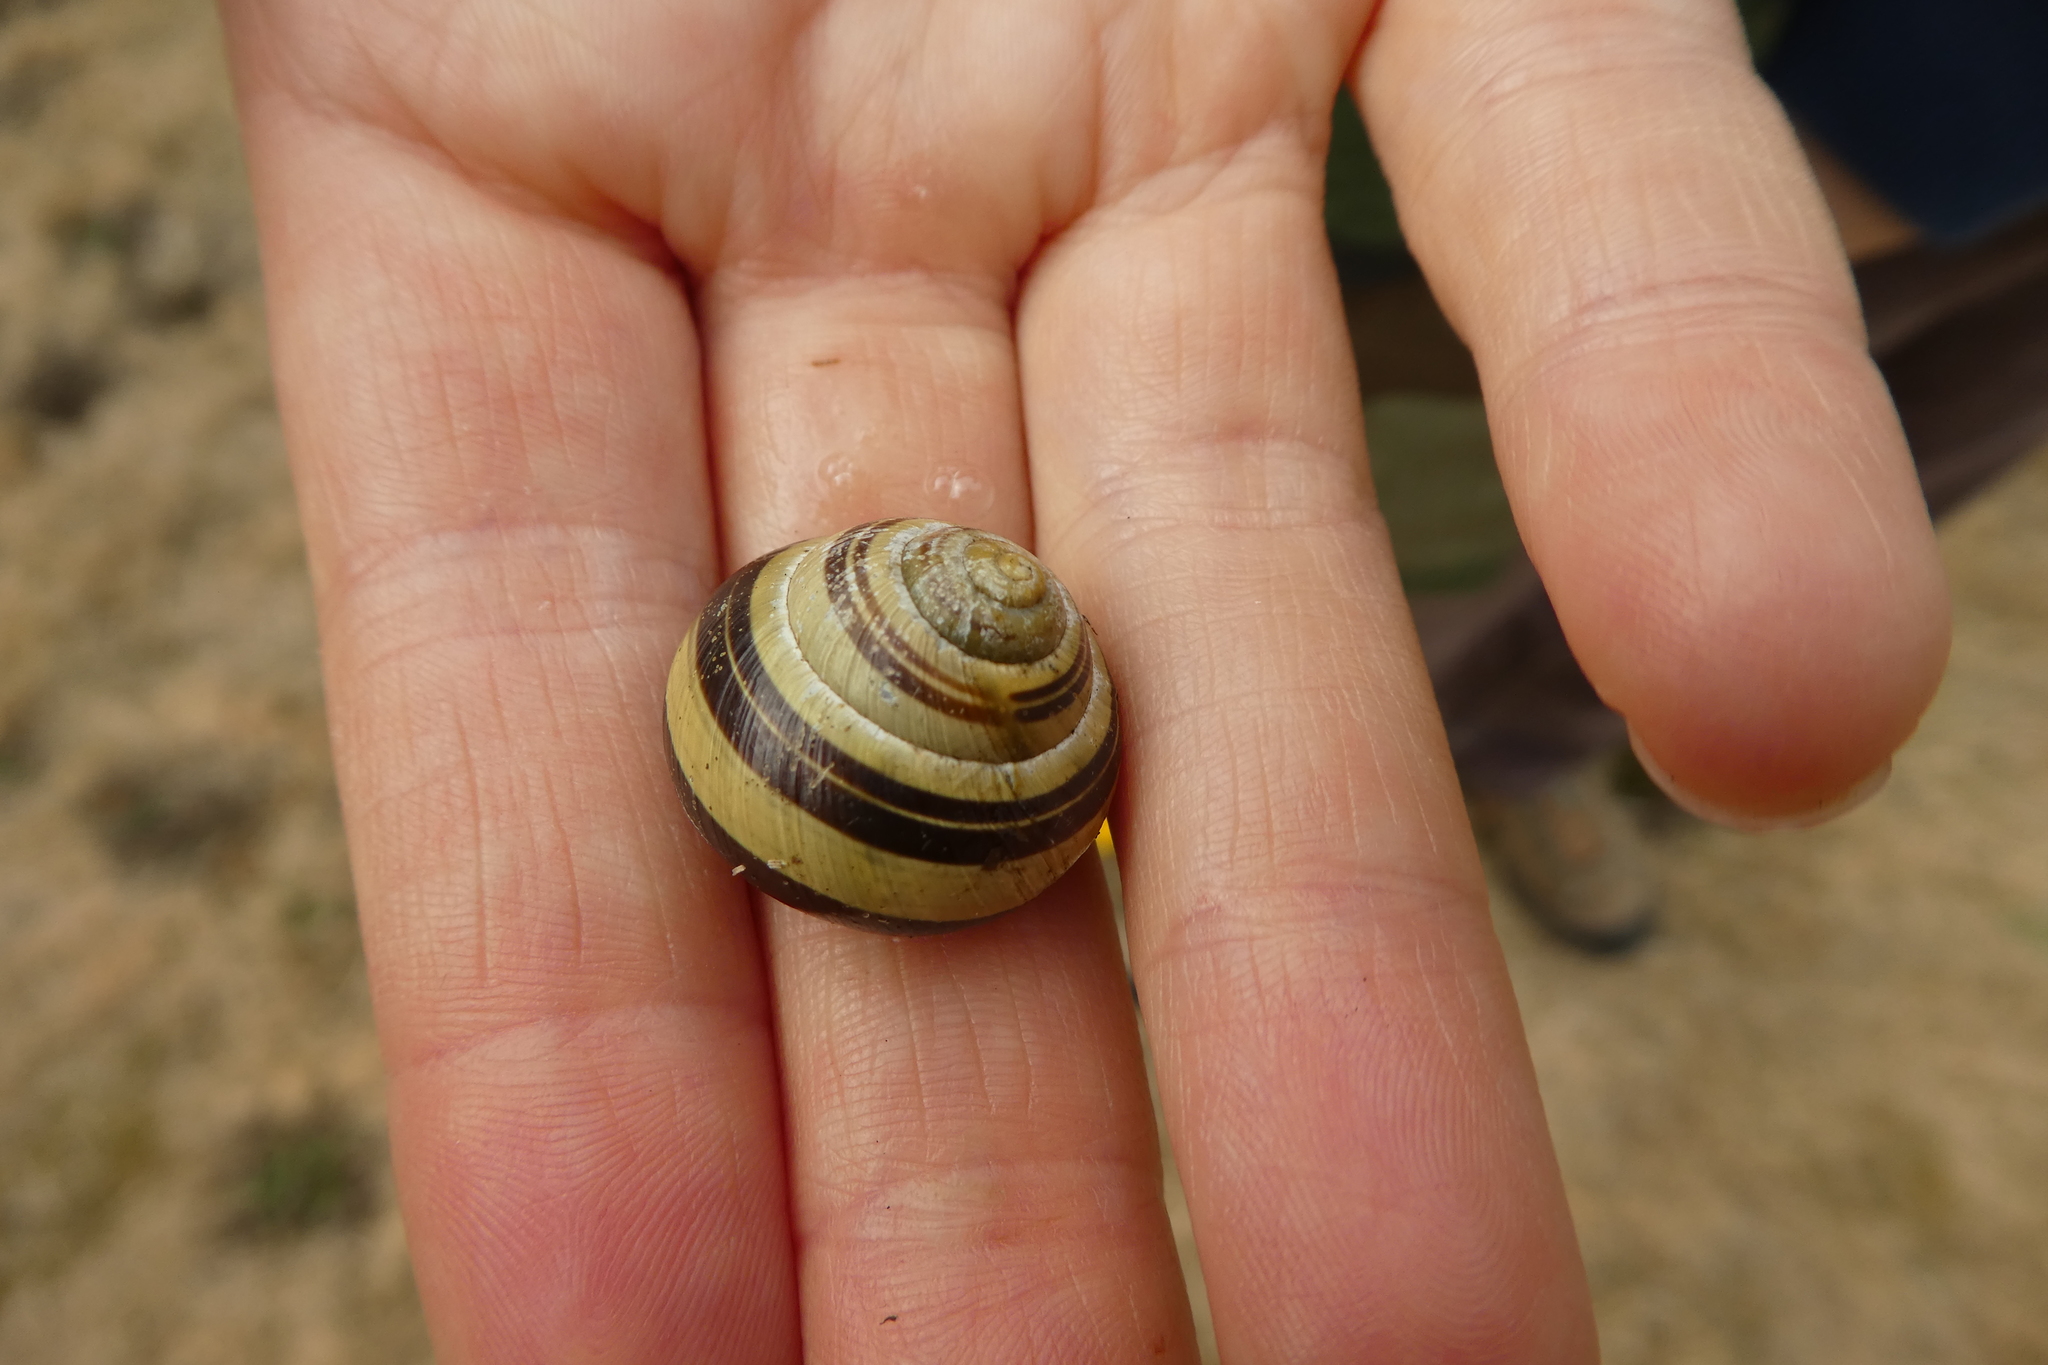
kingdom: Animalia
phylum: Mollusca
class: Gastropoda
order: Stylommatophora
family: Helicidae
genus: Cepaea
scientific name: Cepaea nemoralis
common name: Grovesnail
